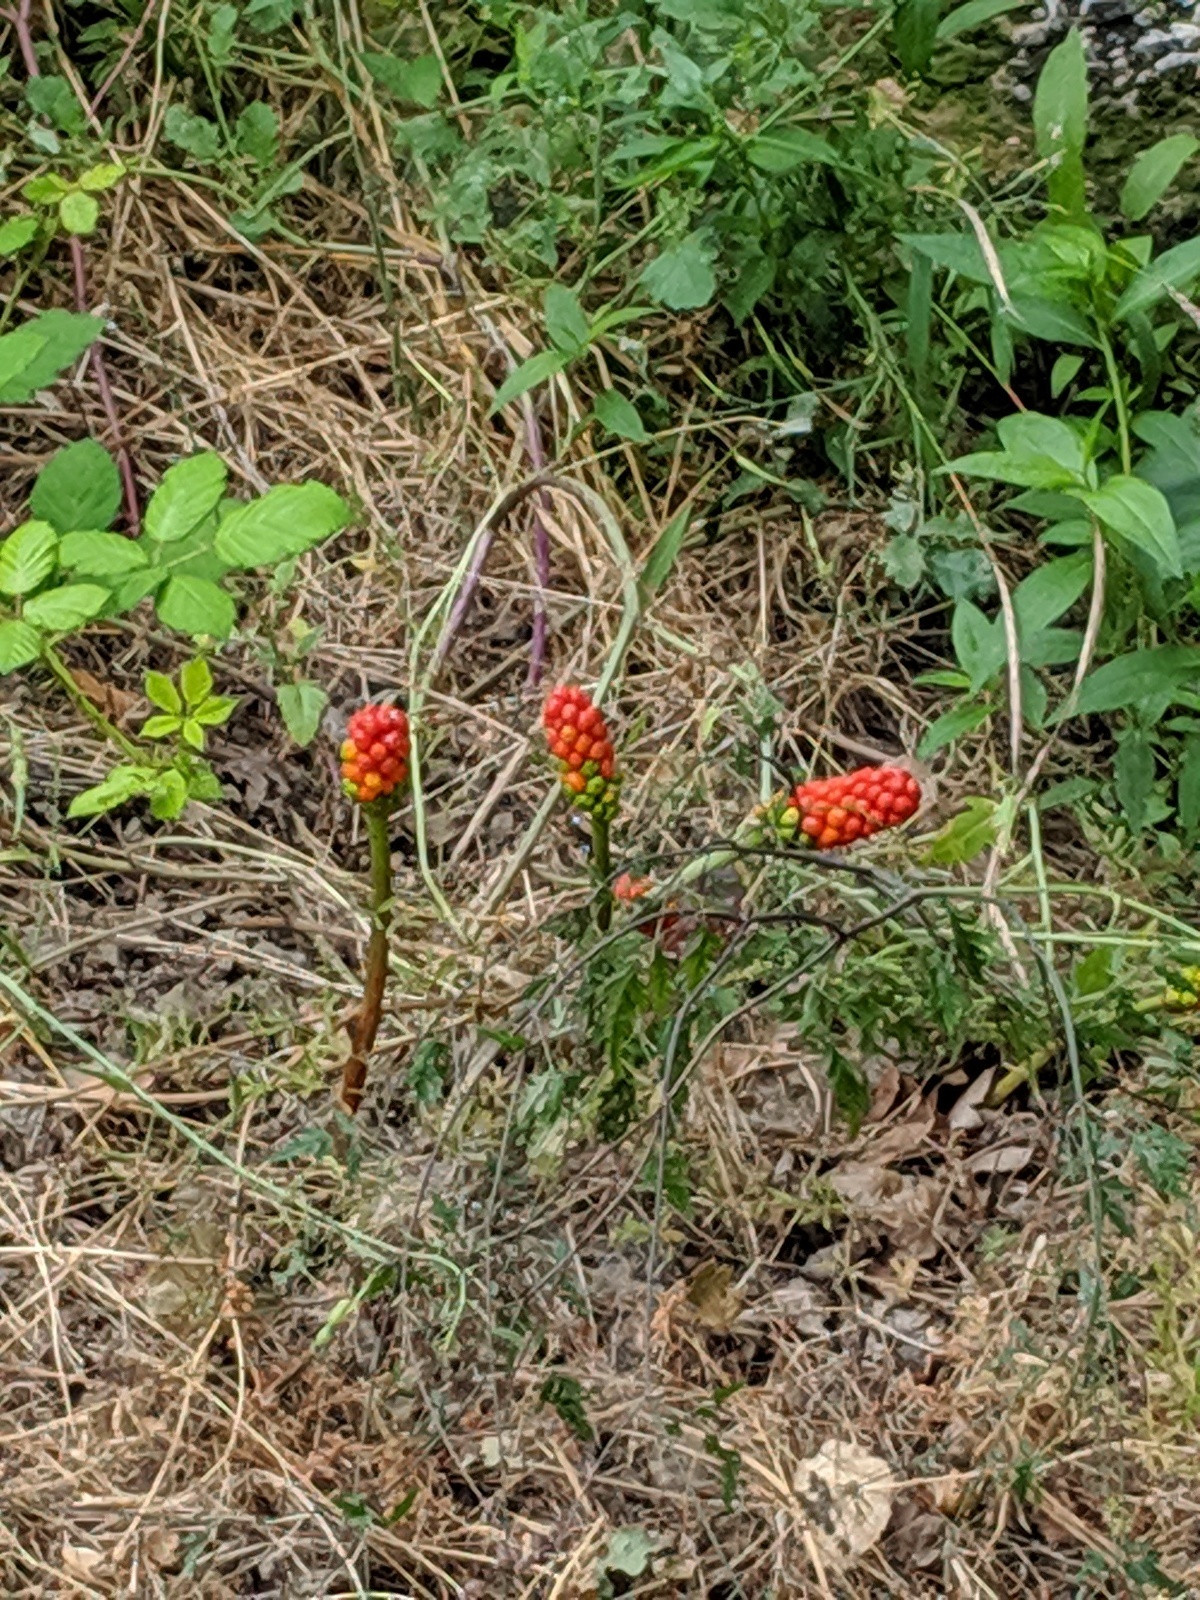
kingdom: Plantae
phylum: Tracheophyta
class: Liliopsida
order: Alismatales
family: Araceae
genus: Arum
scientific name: Arum italicum
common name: Italian lords-and-ladies
